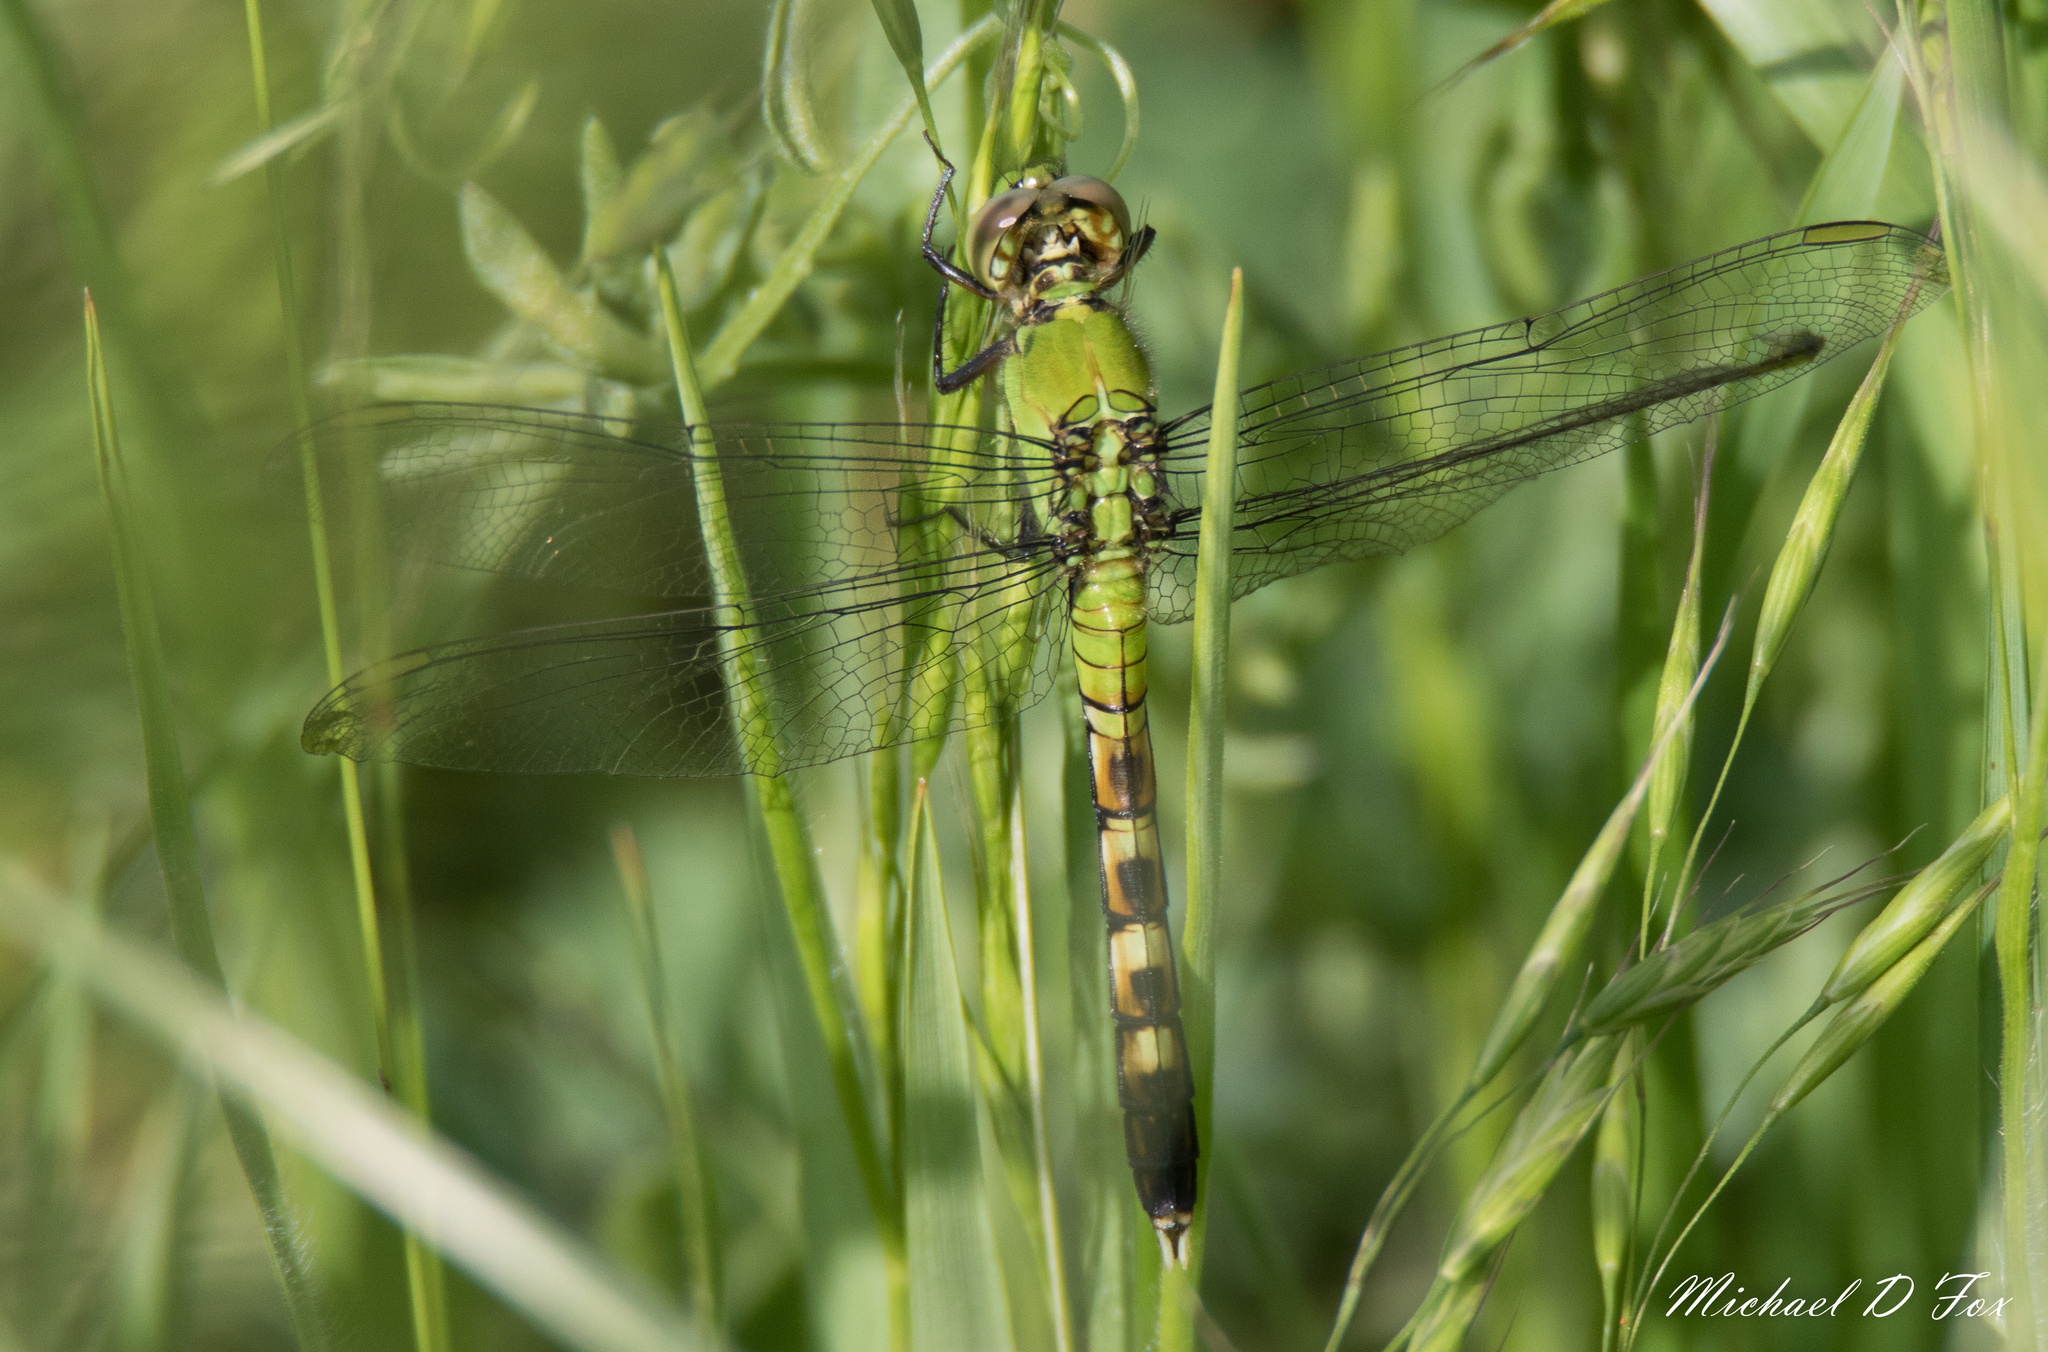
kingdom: Animalia
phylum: Arthropoda
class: Insecta
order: Odonata
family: Libellulidae
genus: Erythemis
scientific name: Erythemis simplicicollis
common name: Eastern pondhawk
